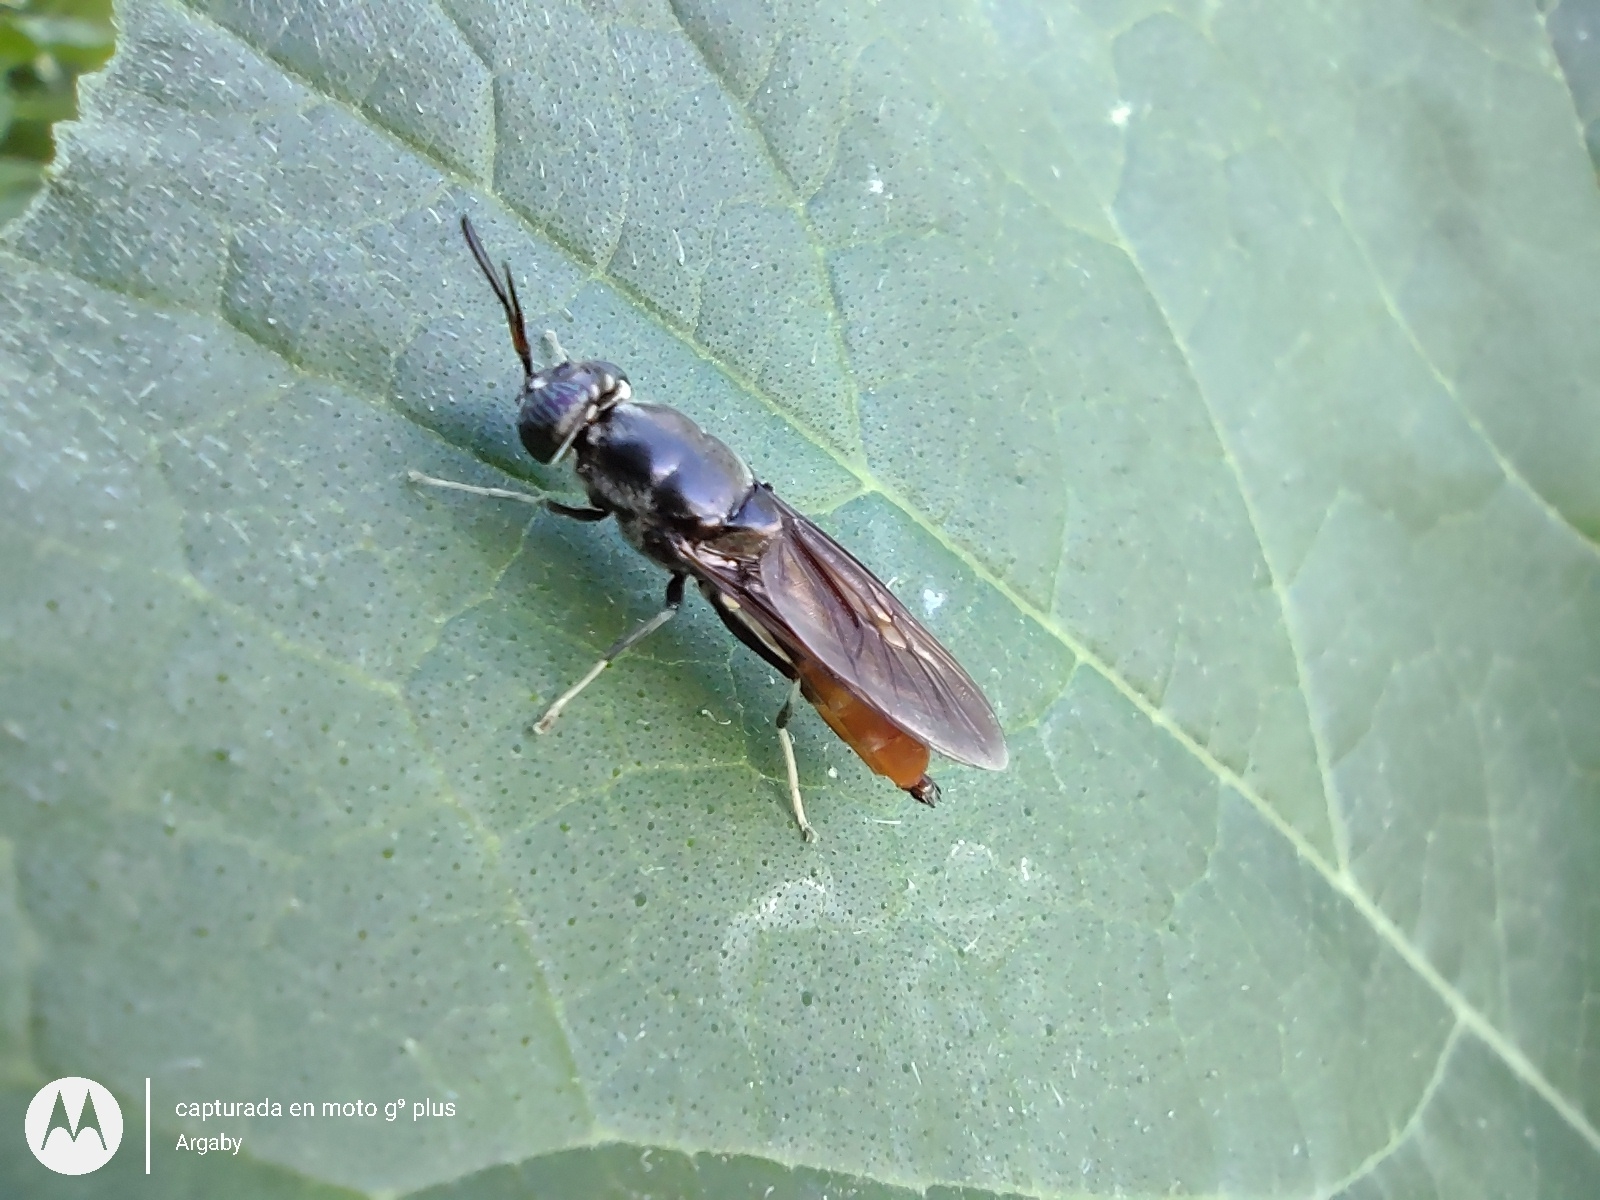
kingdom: Animalia
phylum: Arthropoda
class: Insecta
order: Diptera
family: Stratiomyidae
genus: Hermetia
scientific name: Hermetia illucens
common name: Black soldier fly
